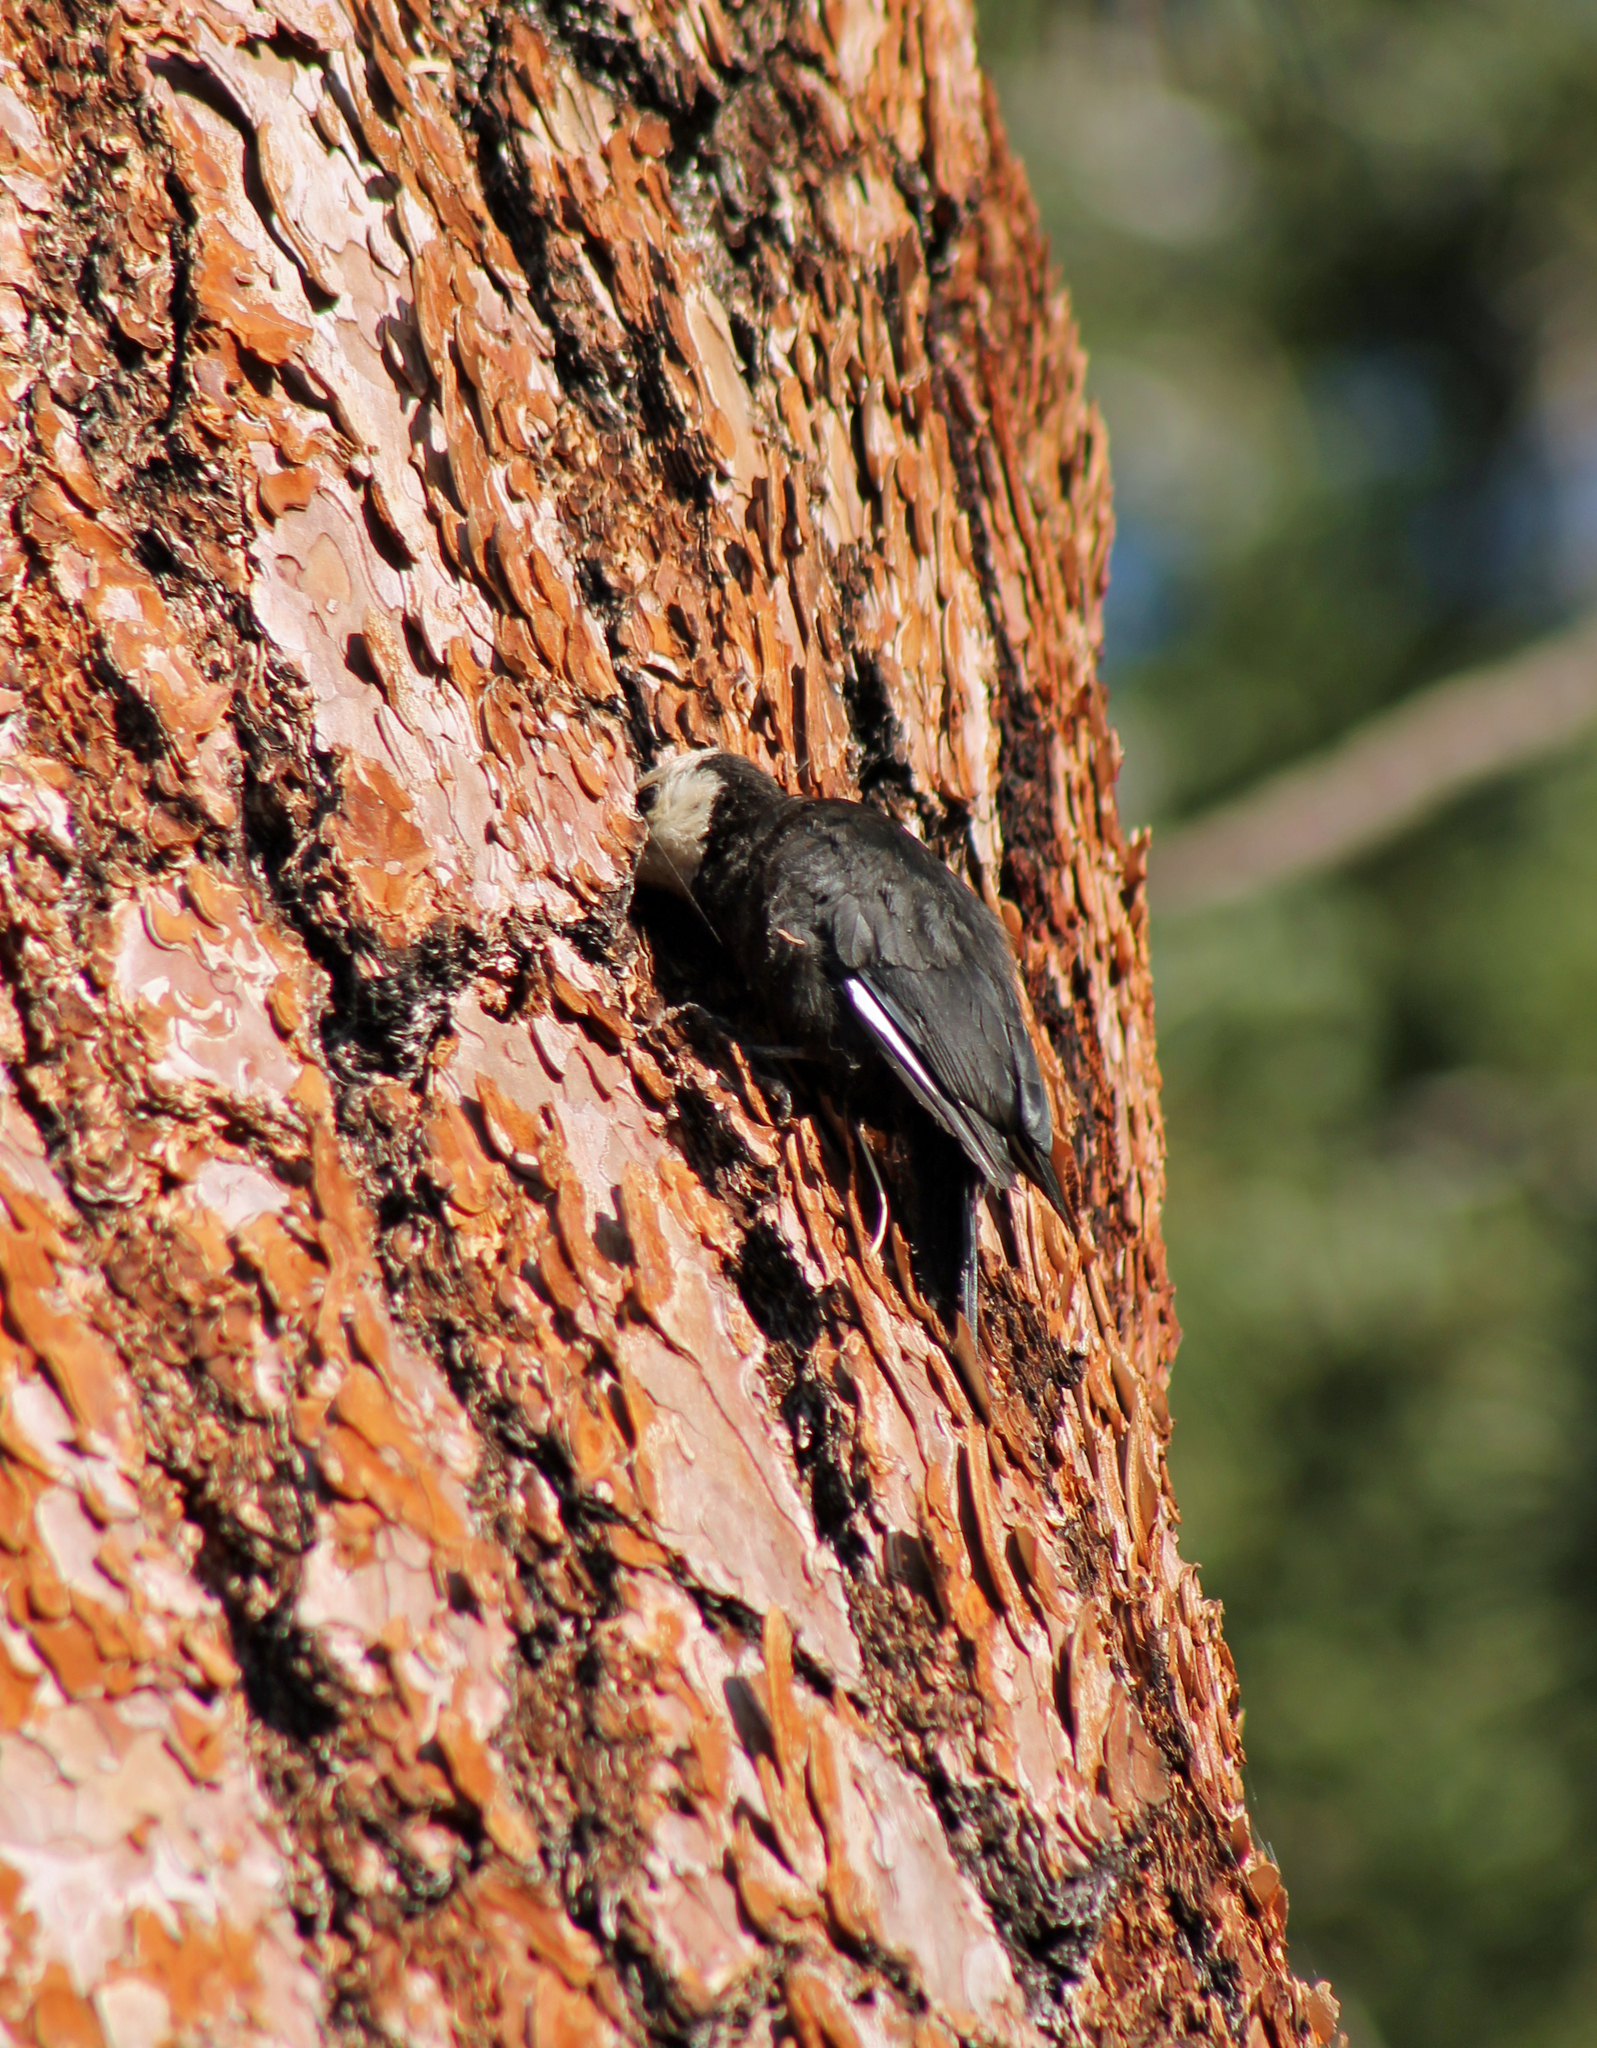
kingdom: Animalia
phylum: Chordata
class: Aves
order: Piciformes
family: Picidae
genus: Leuconotopicus
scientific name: Leuconotopicus albolarvatus
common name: White-headed woodpecker
